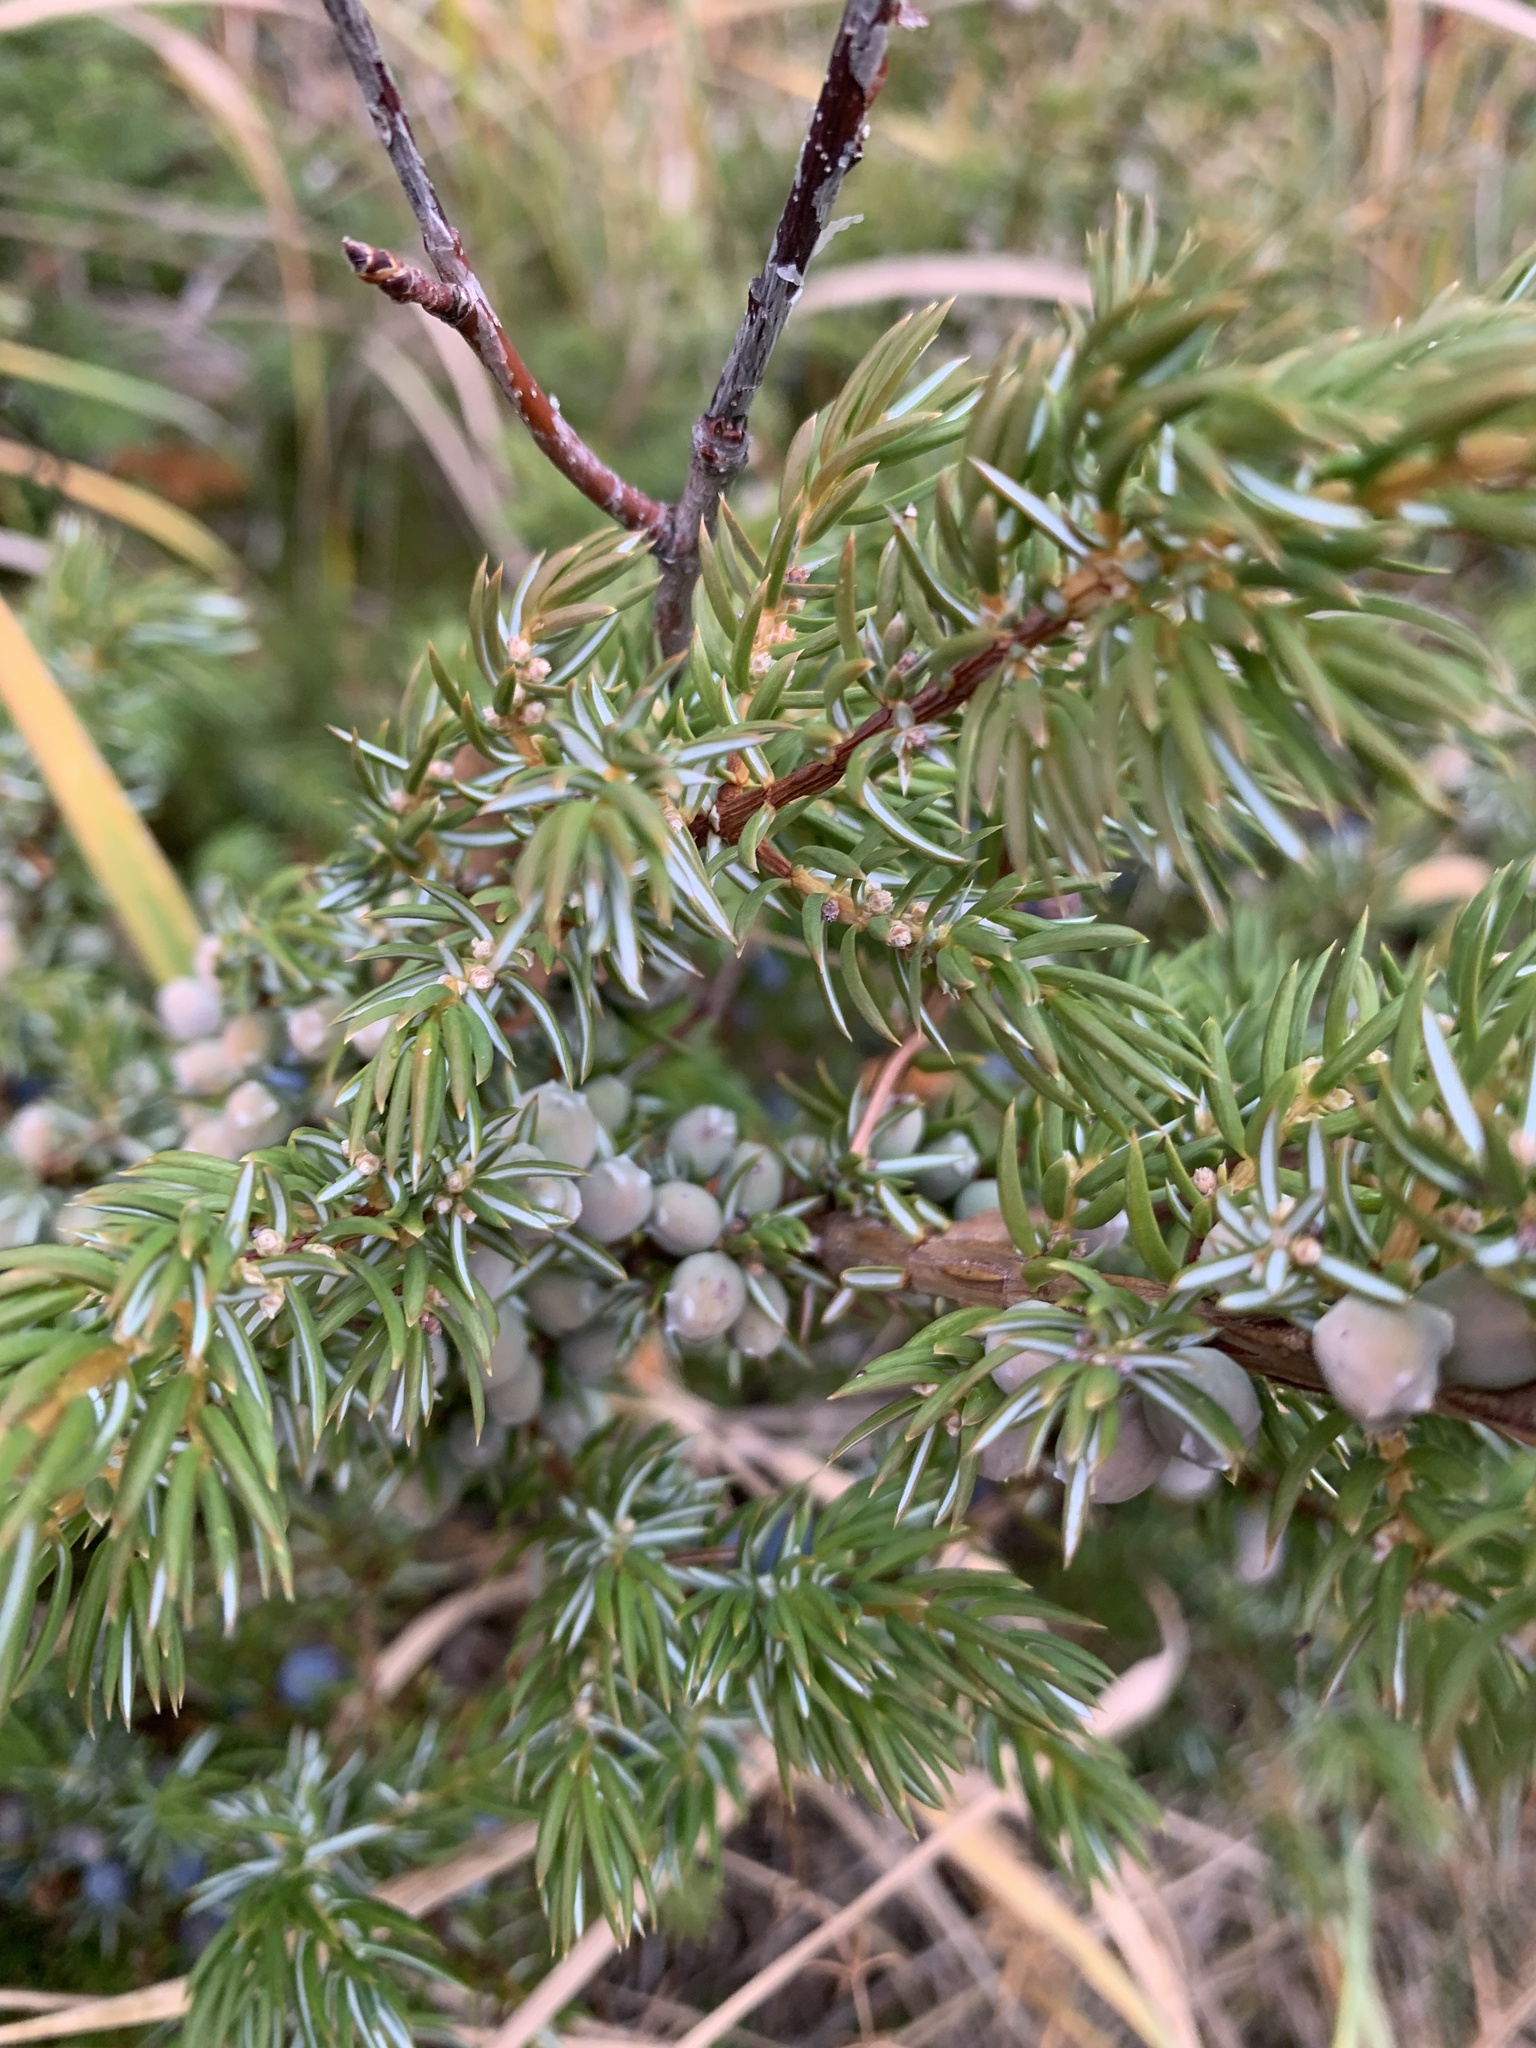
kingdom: Plantae
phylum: Tracheophyta
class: Pinopsida
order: Pinales
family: Cupressaceae
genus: Juniperus
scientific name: Juniperus communis
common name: Common juniper
